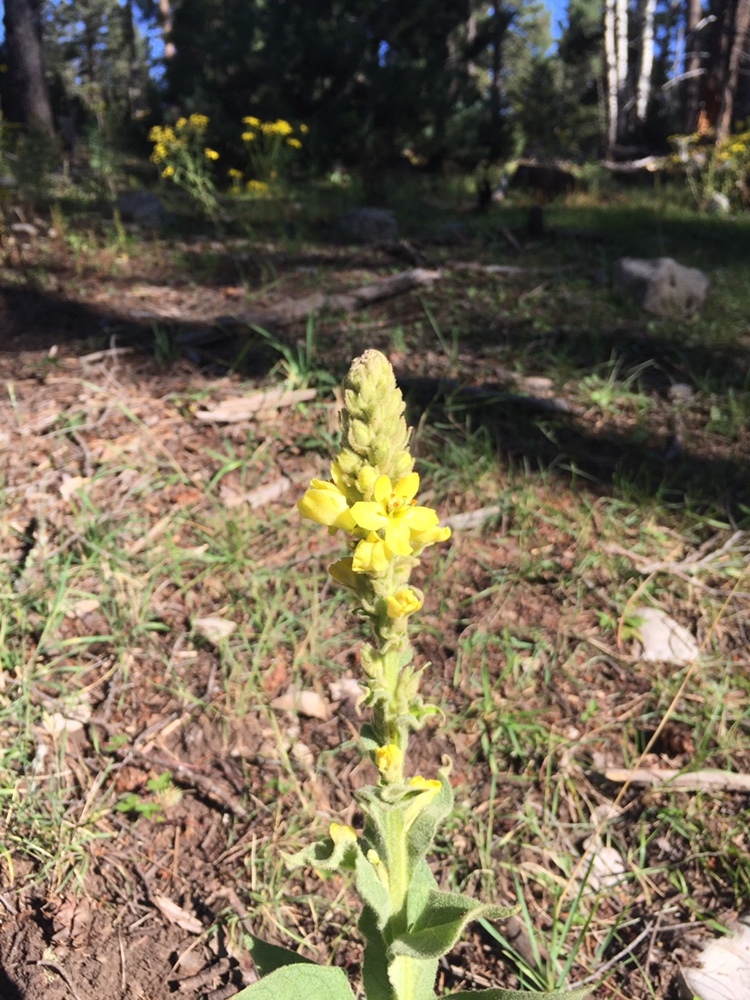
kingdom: Plantae
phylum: Tracheophyta
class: Magnoliopsida
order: Lamiales
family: Scrophulariaceae
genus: Verbascum
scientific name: Verbascum thapsus
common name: Common mullein
